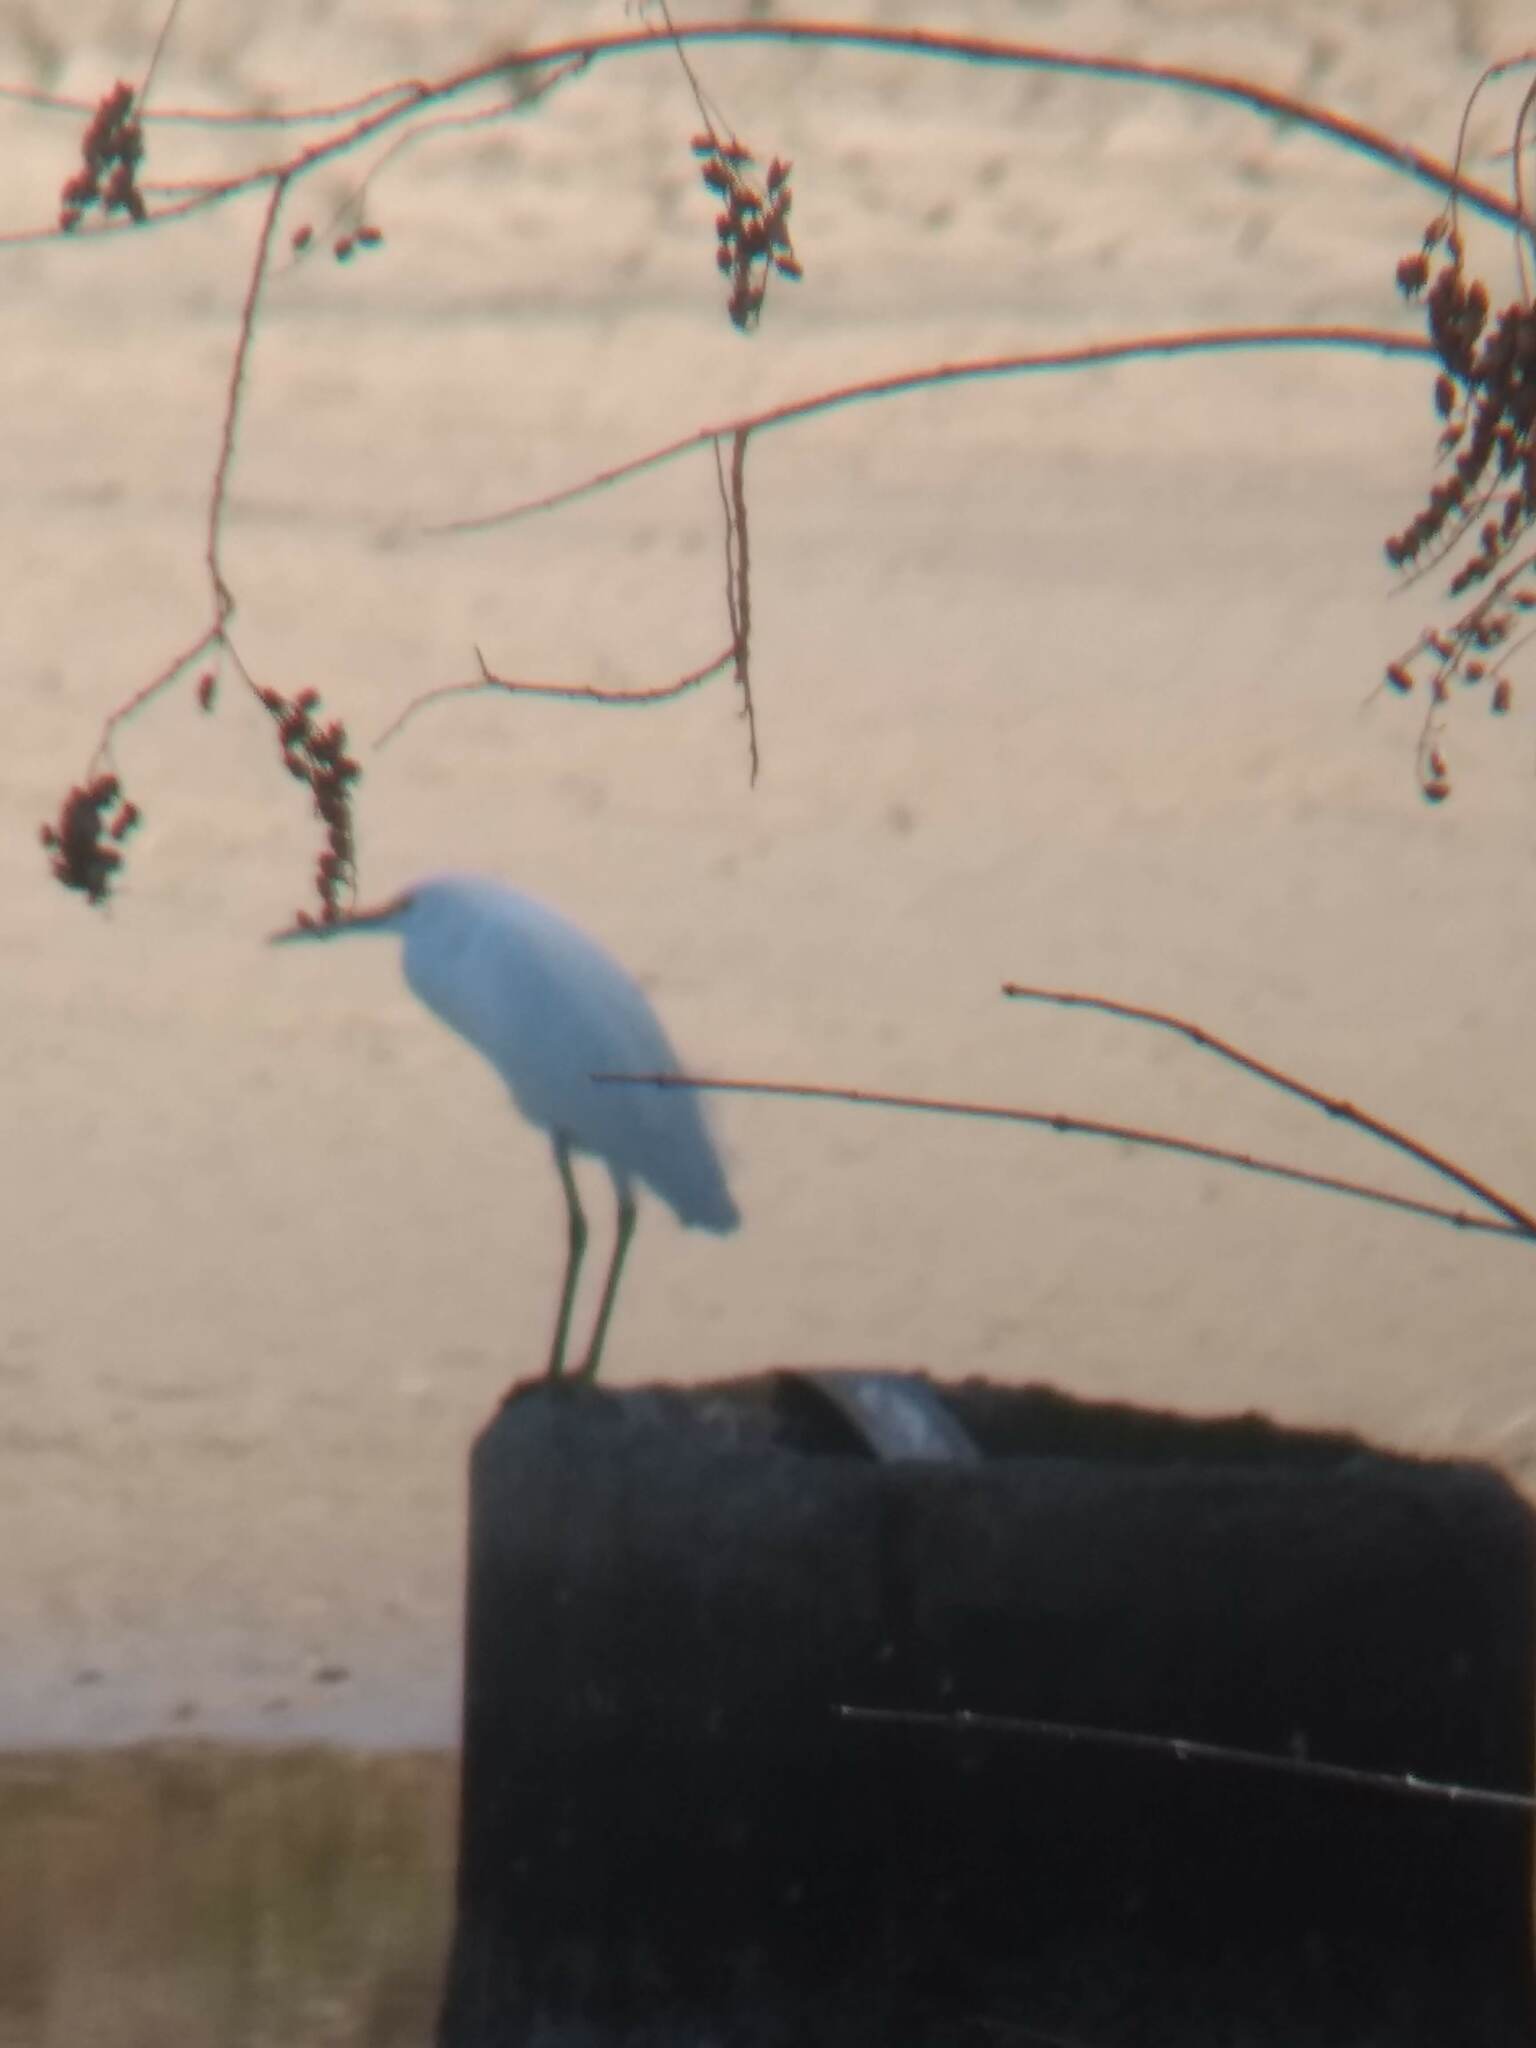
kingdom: Animalia
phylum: Chordata
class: Aves
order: Pelecaniformes
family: Ardeidae
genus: Ardea
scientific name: Ardea alba
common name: Great egret
